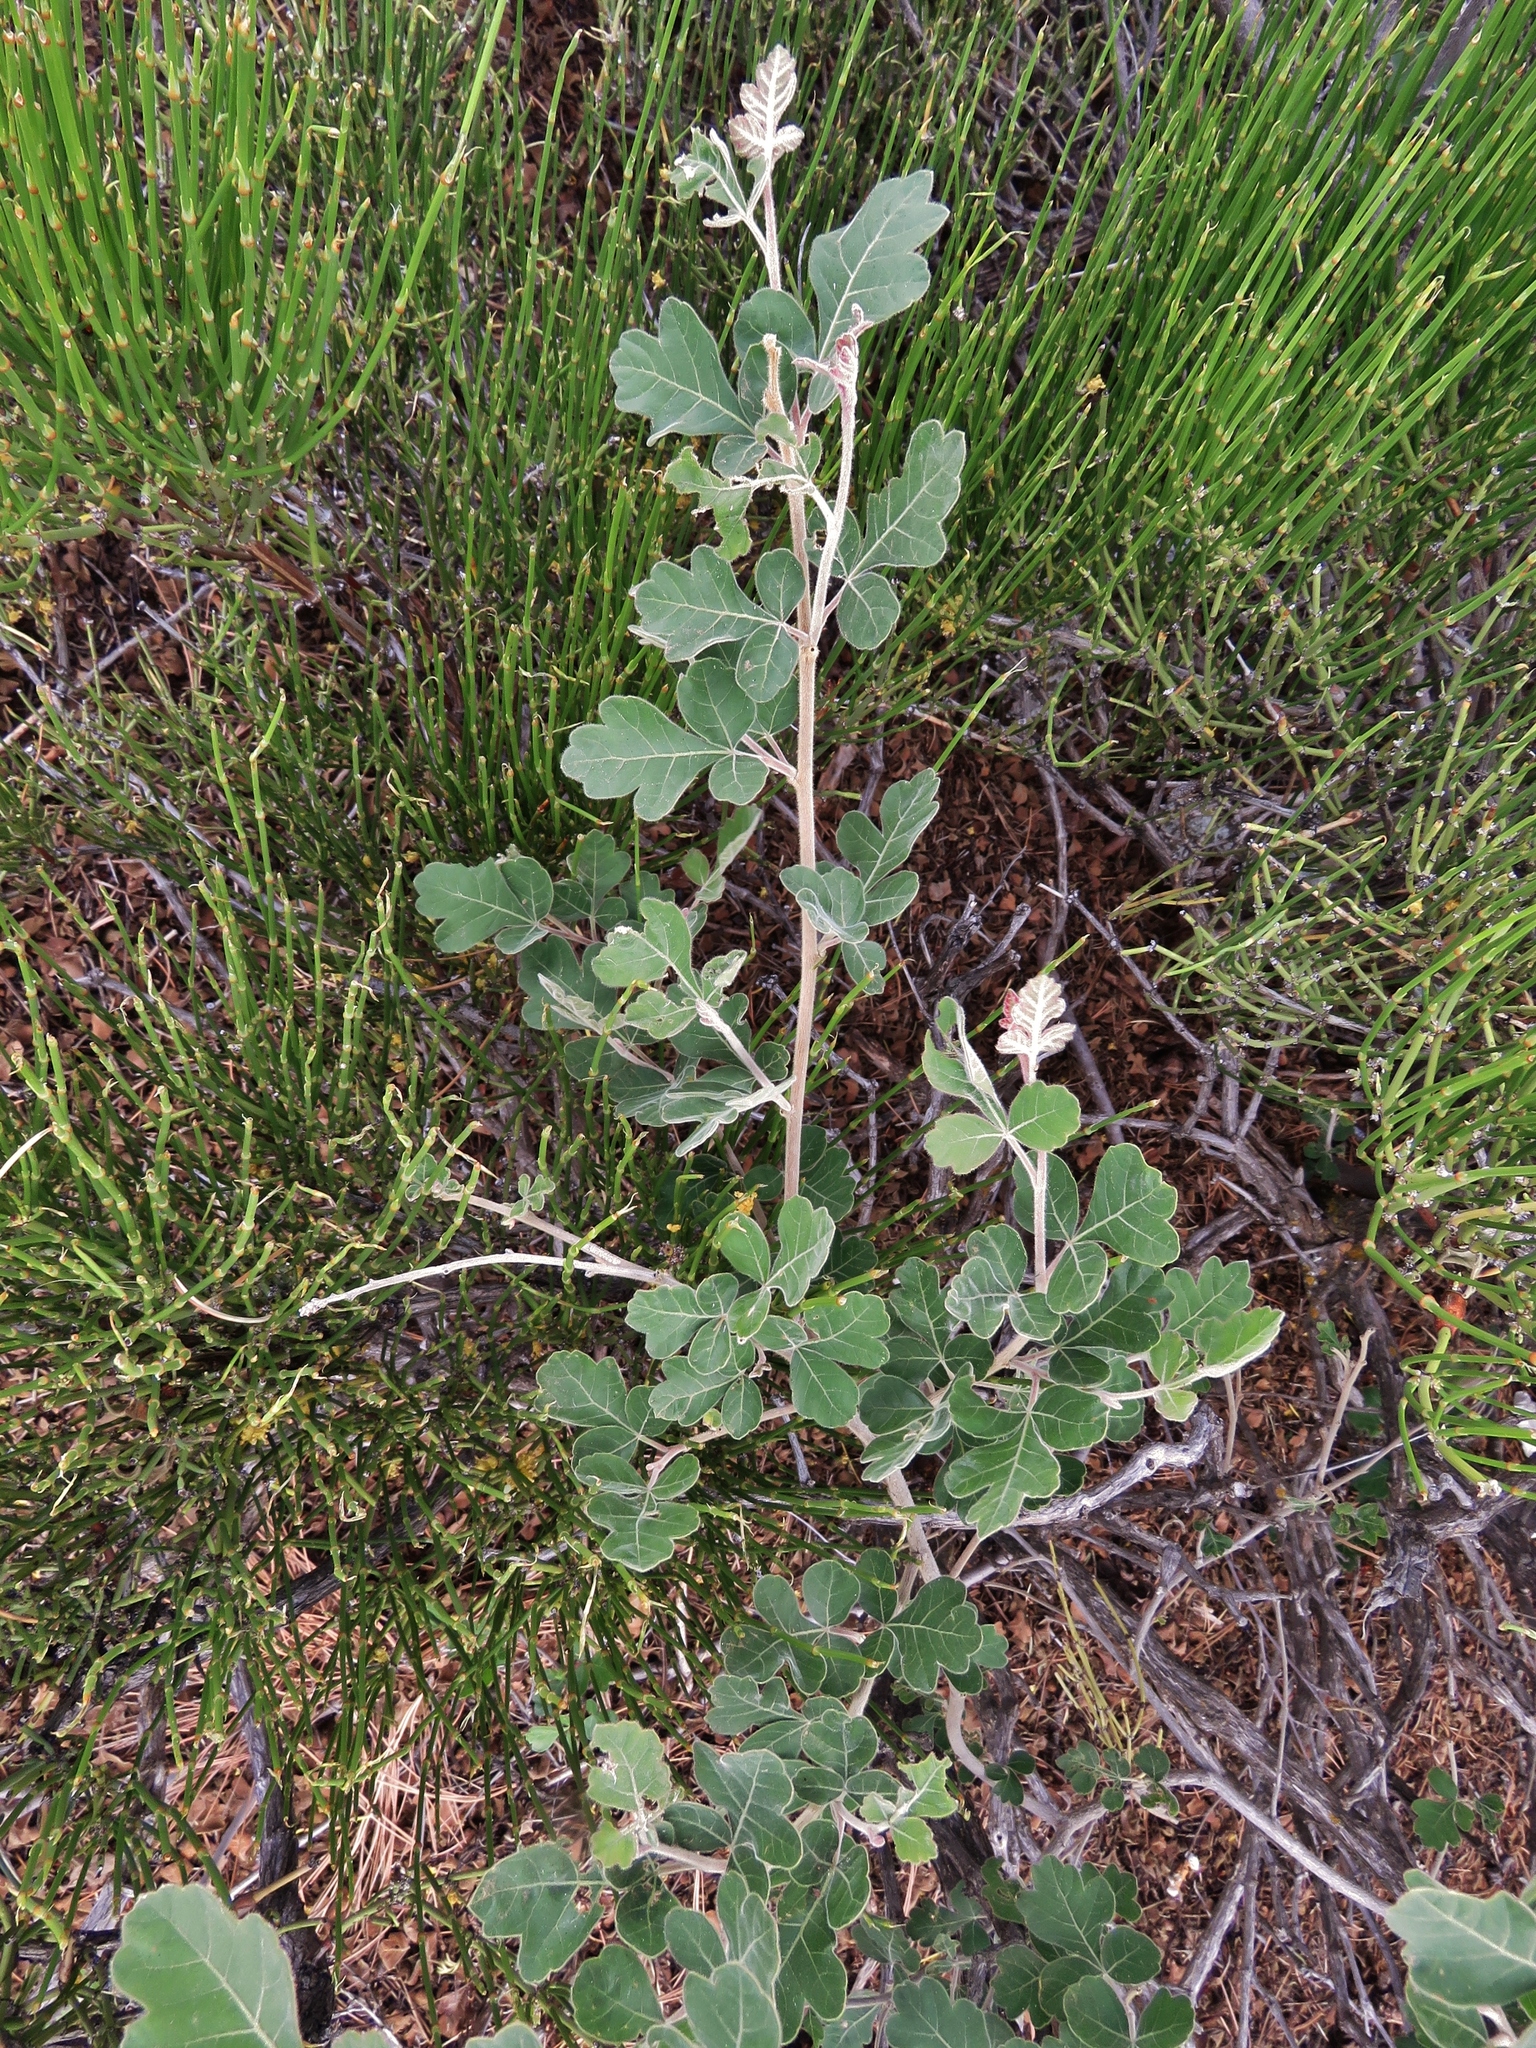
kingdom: Plantae
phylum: Tracheophyta
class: Magnoliopsida
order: Sapindales
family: Anacardiaceae
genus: Rhus
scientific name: Rhus aromatica
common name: Aromatic sumac
